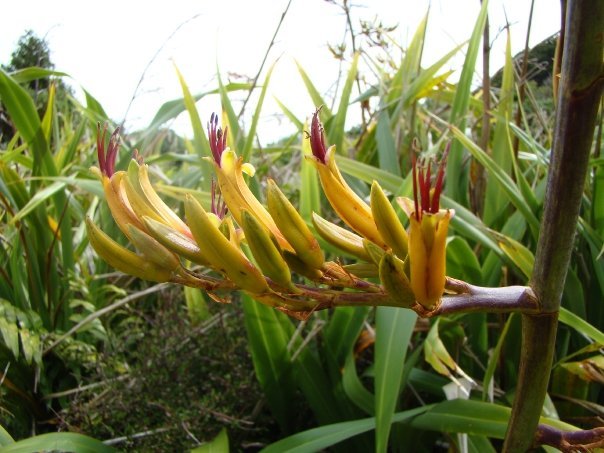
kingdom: Plantae
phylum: Tracheophyta
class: Liliopsida
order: Asparagales
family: Asphodelaceae
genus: Phormium
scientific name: Phormium colensoi
